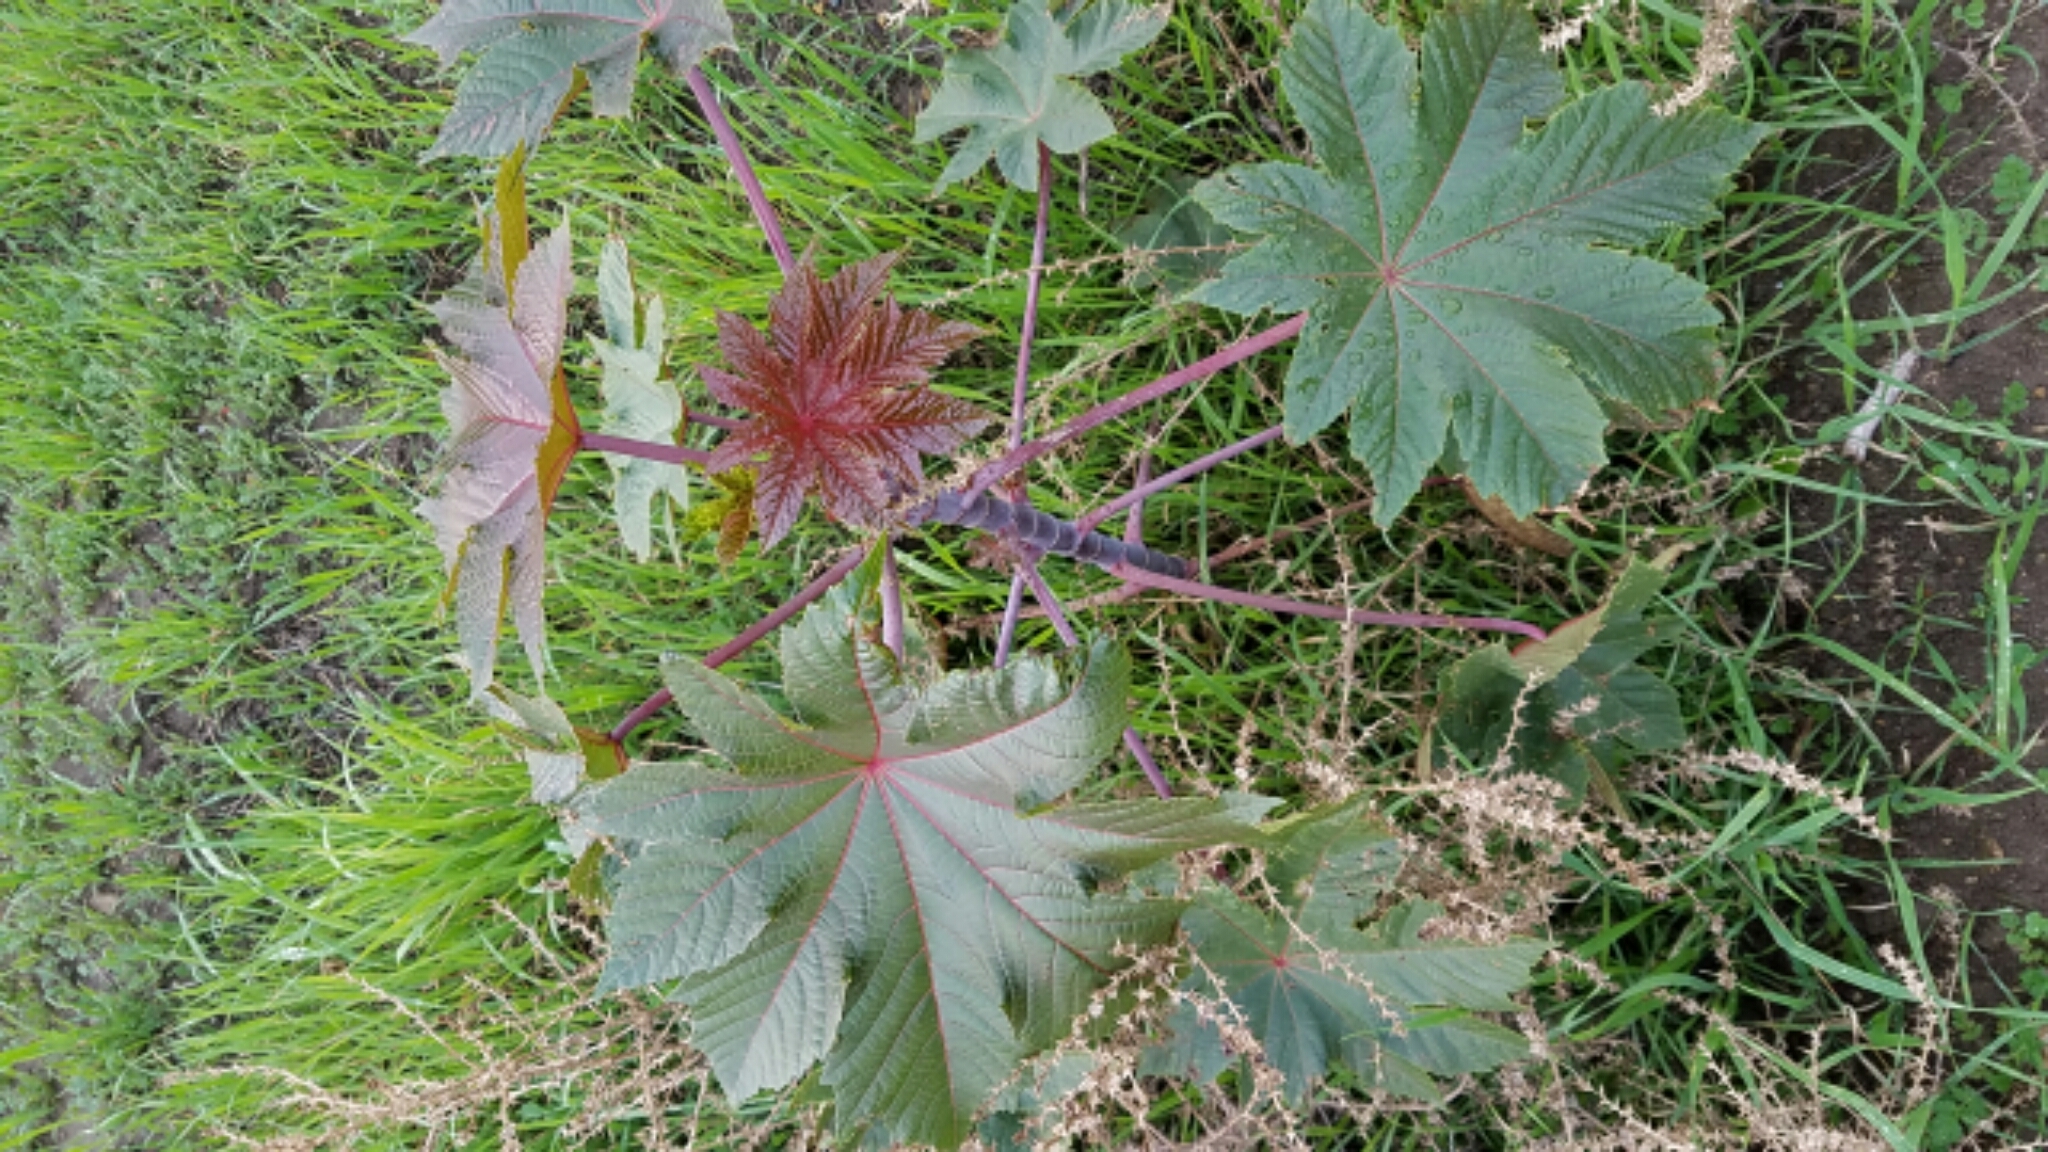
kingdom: Plantae
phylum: Tracheophyta
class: Magnoliopsida
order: Malpighiales
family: Euphorbiaceae
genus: Ricinus
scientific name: Ricinus communis
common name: Castor-oil-plant
